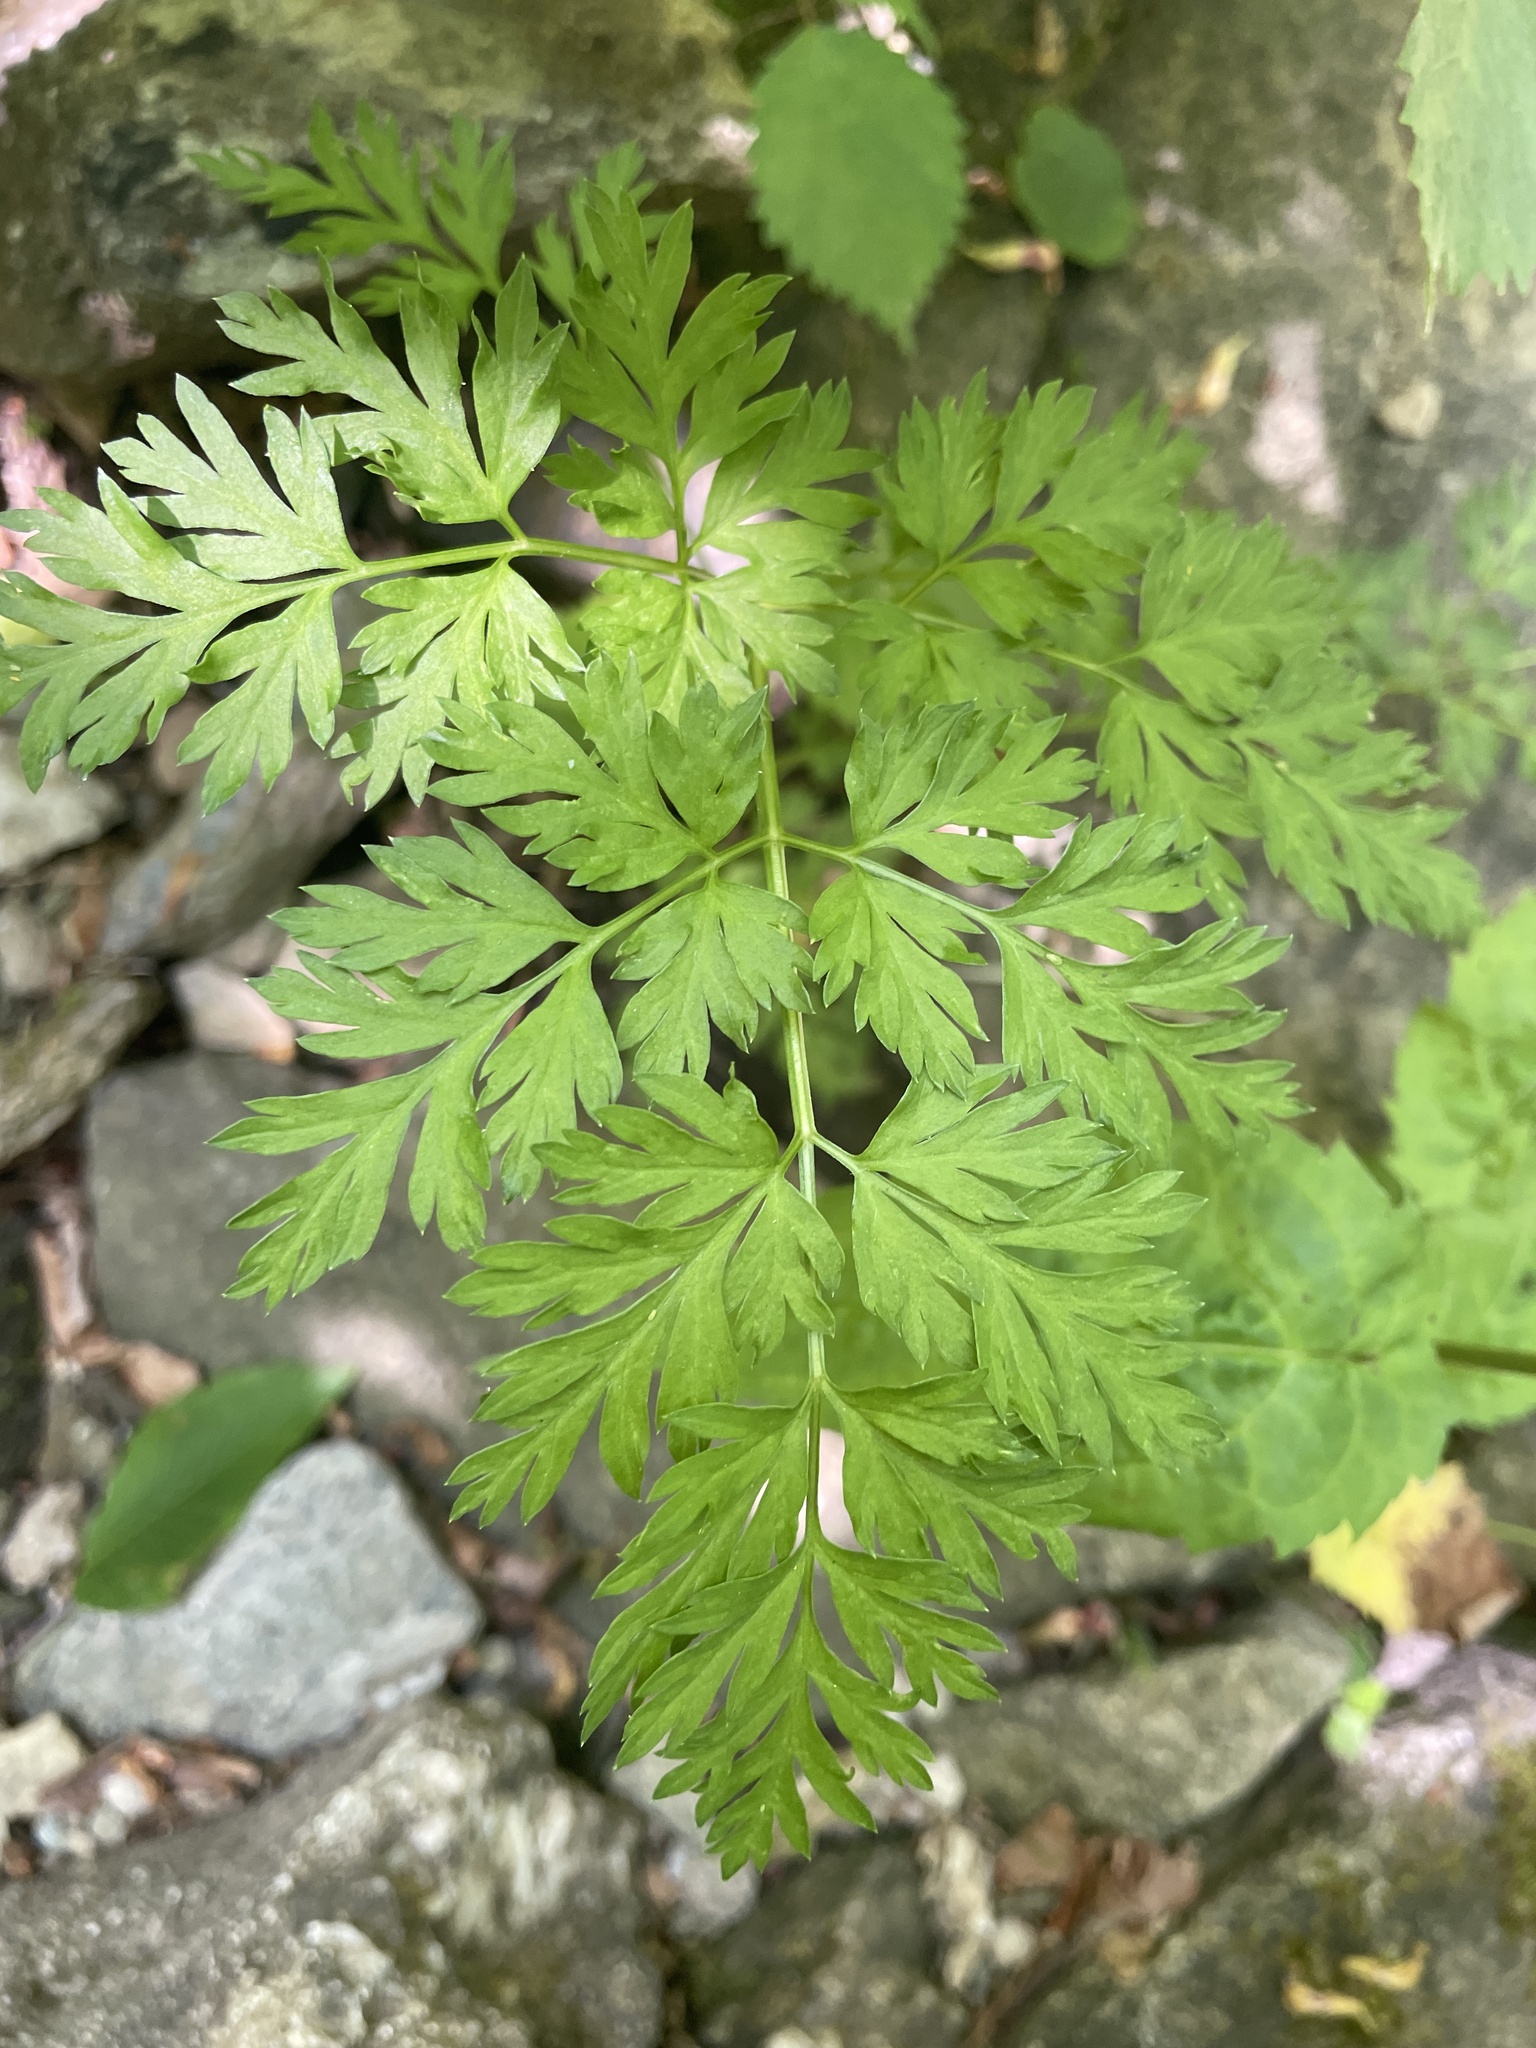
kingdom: Plantae
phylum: Tracheophyta
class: Magnoliopsida
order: Apiales
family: Apiaceae
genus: Kreidion
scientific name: Kreidion chinensis
